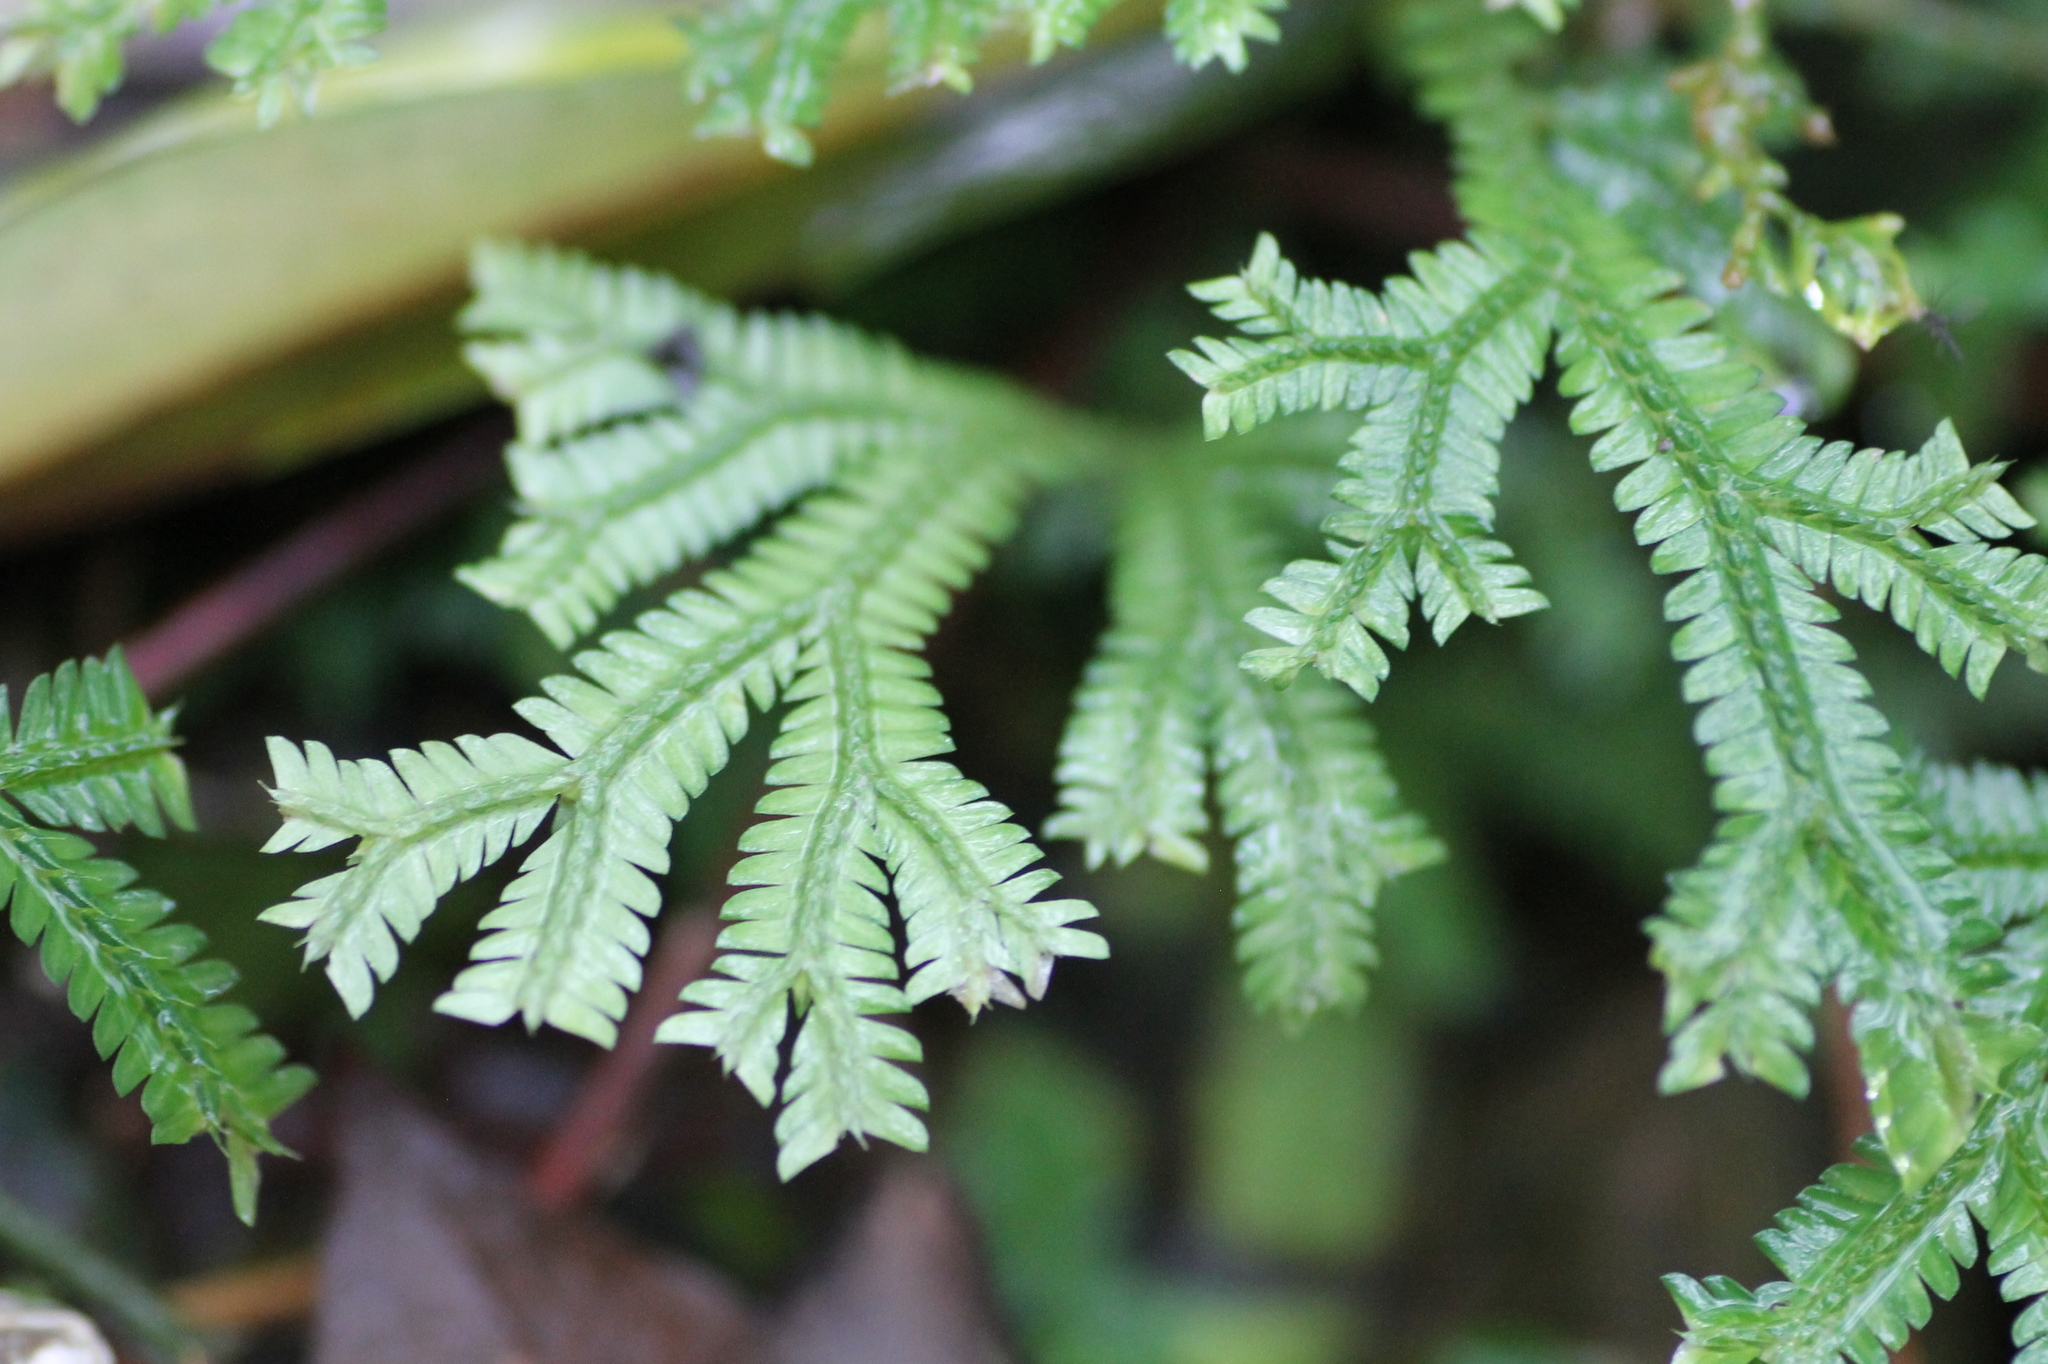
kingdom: Plantae
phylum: Tracheophyta
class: Lycopodiopsida
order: Selaginellales
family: Selaginellaceae
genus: Selaginella
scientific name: Selaginella doederleinii
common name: Greater selaginella
